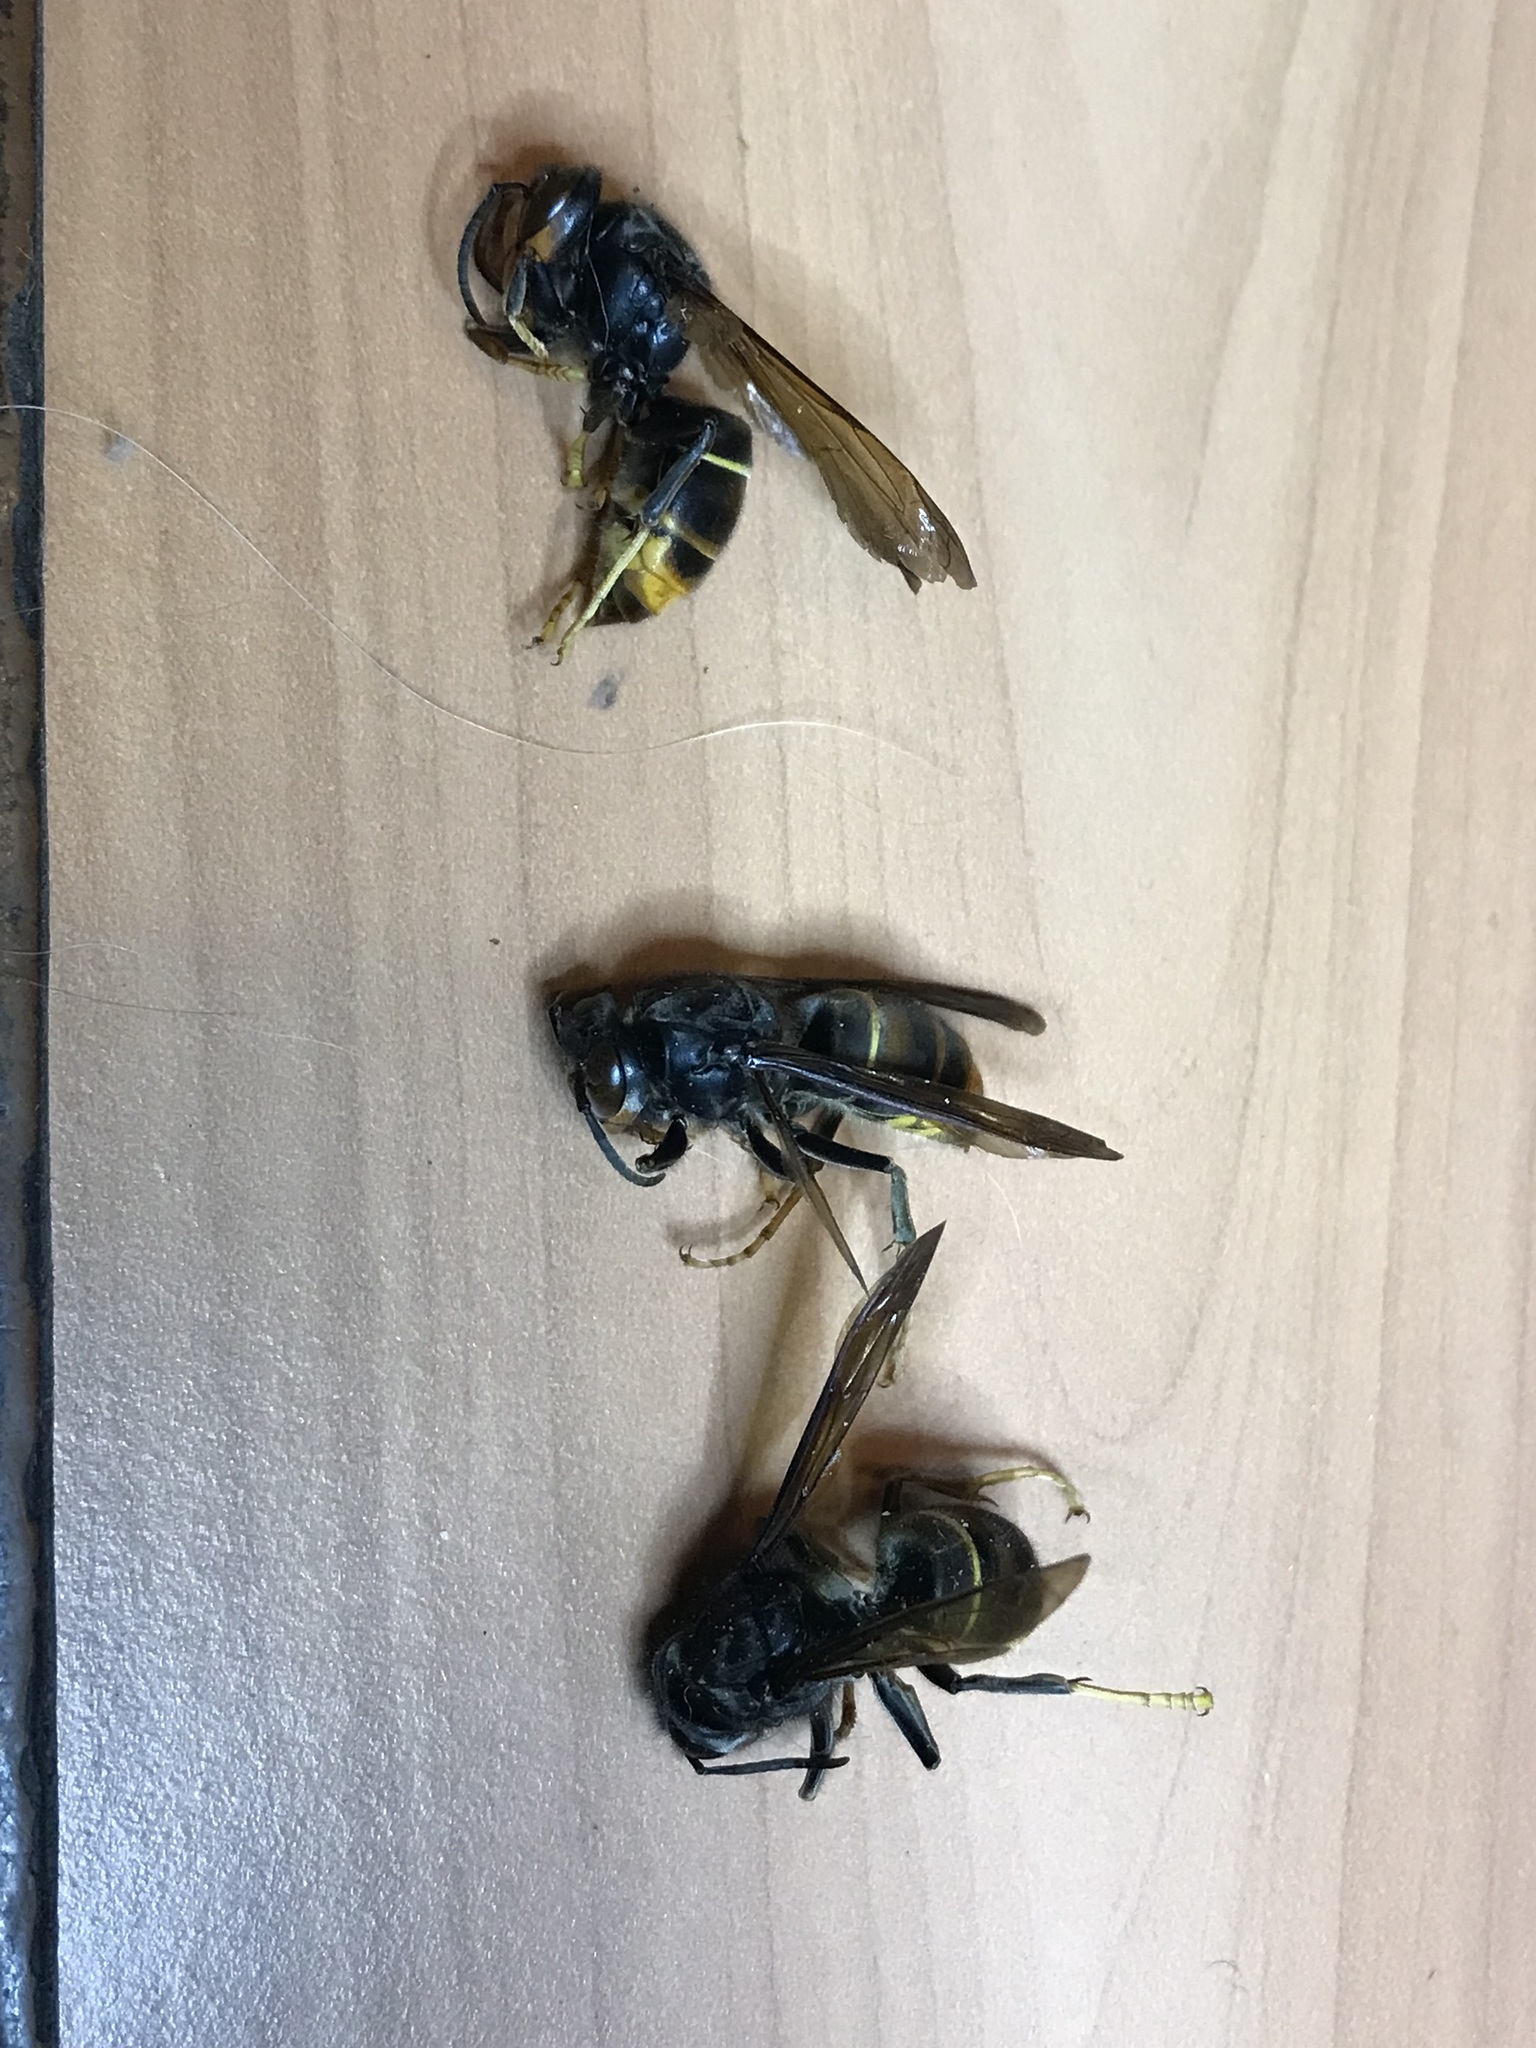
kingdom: Animalia
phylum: Arthropoda
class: Insecta
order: Hymenoptera
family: Vespidae
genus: Vespa
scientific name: Vespa velutina
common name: Asian hornet
